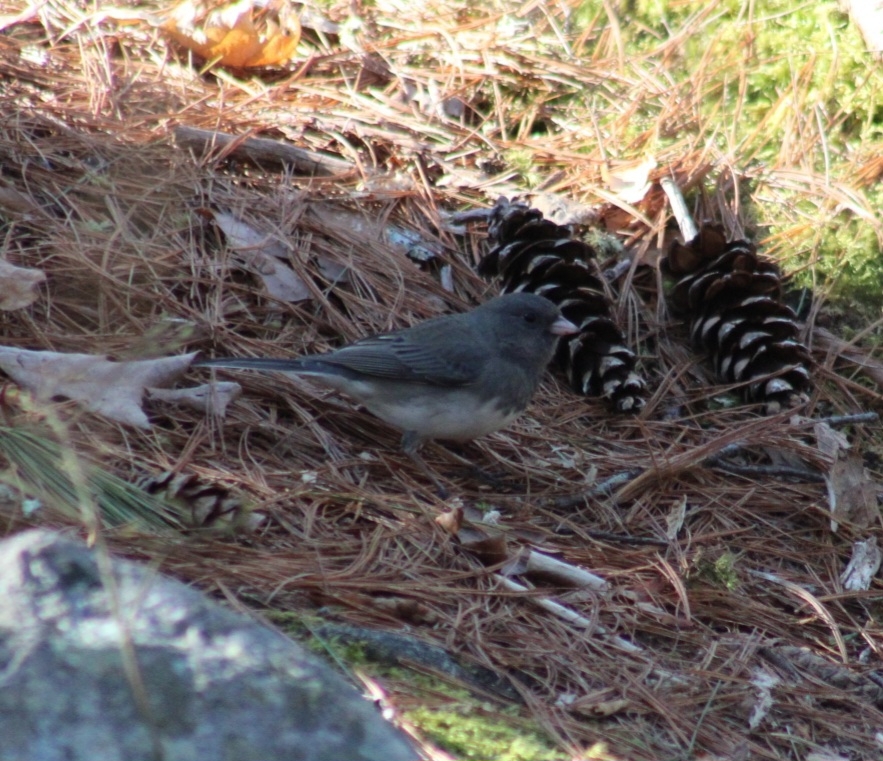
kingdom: Animalia
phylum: Chordata
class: Aves
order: Passeriformes
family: Passerellidae
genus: Junco
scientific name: Junco hyemalis
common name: Dark-eyed junco
